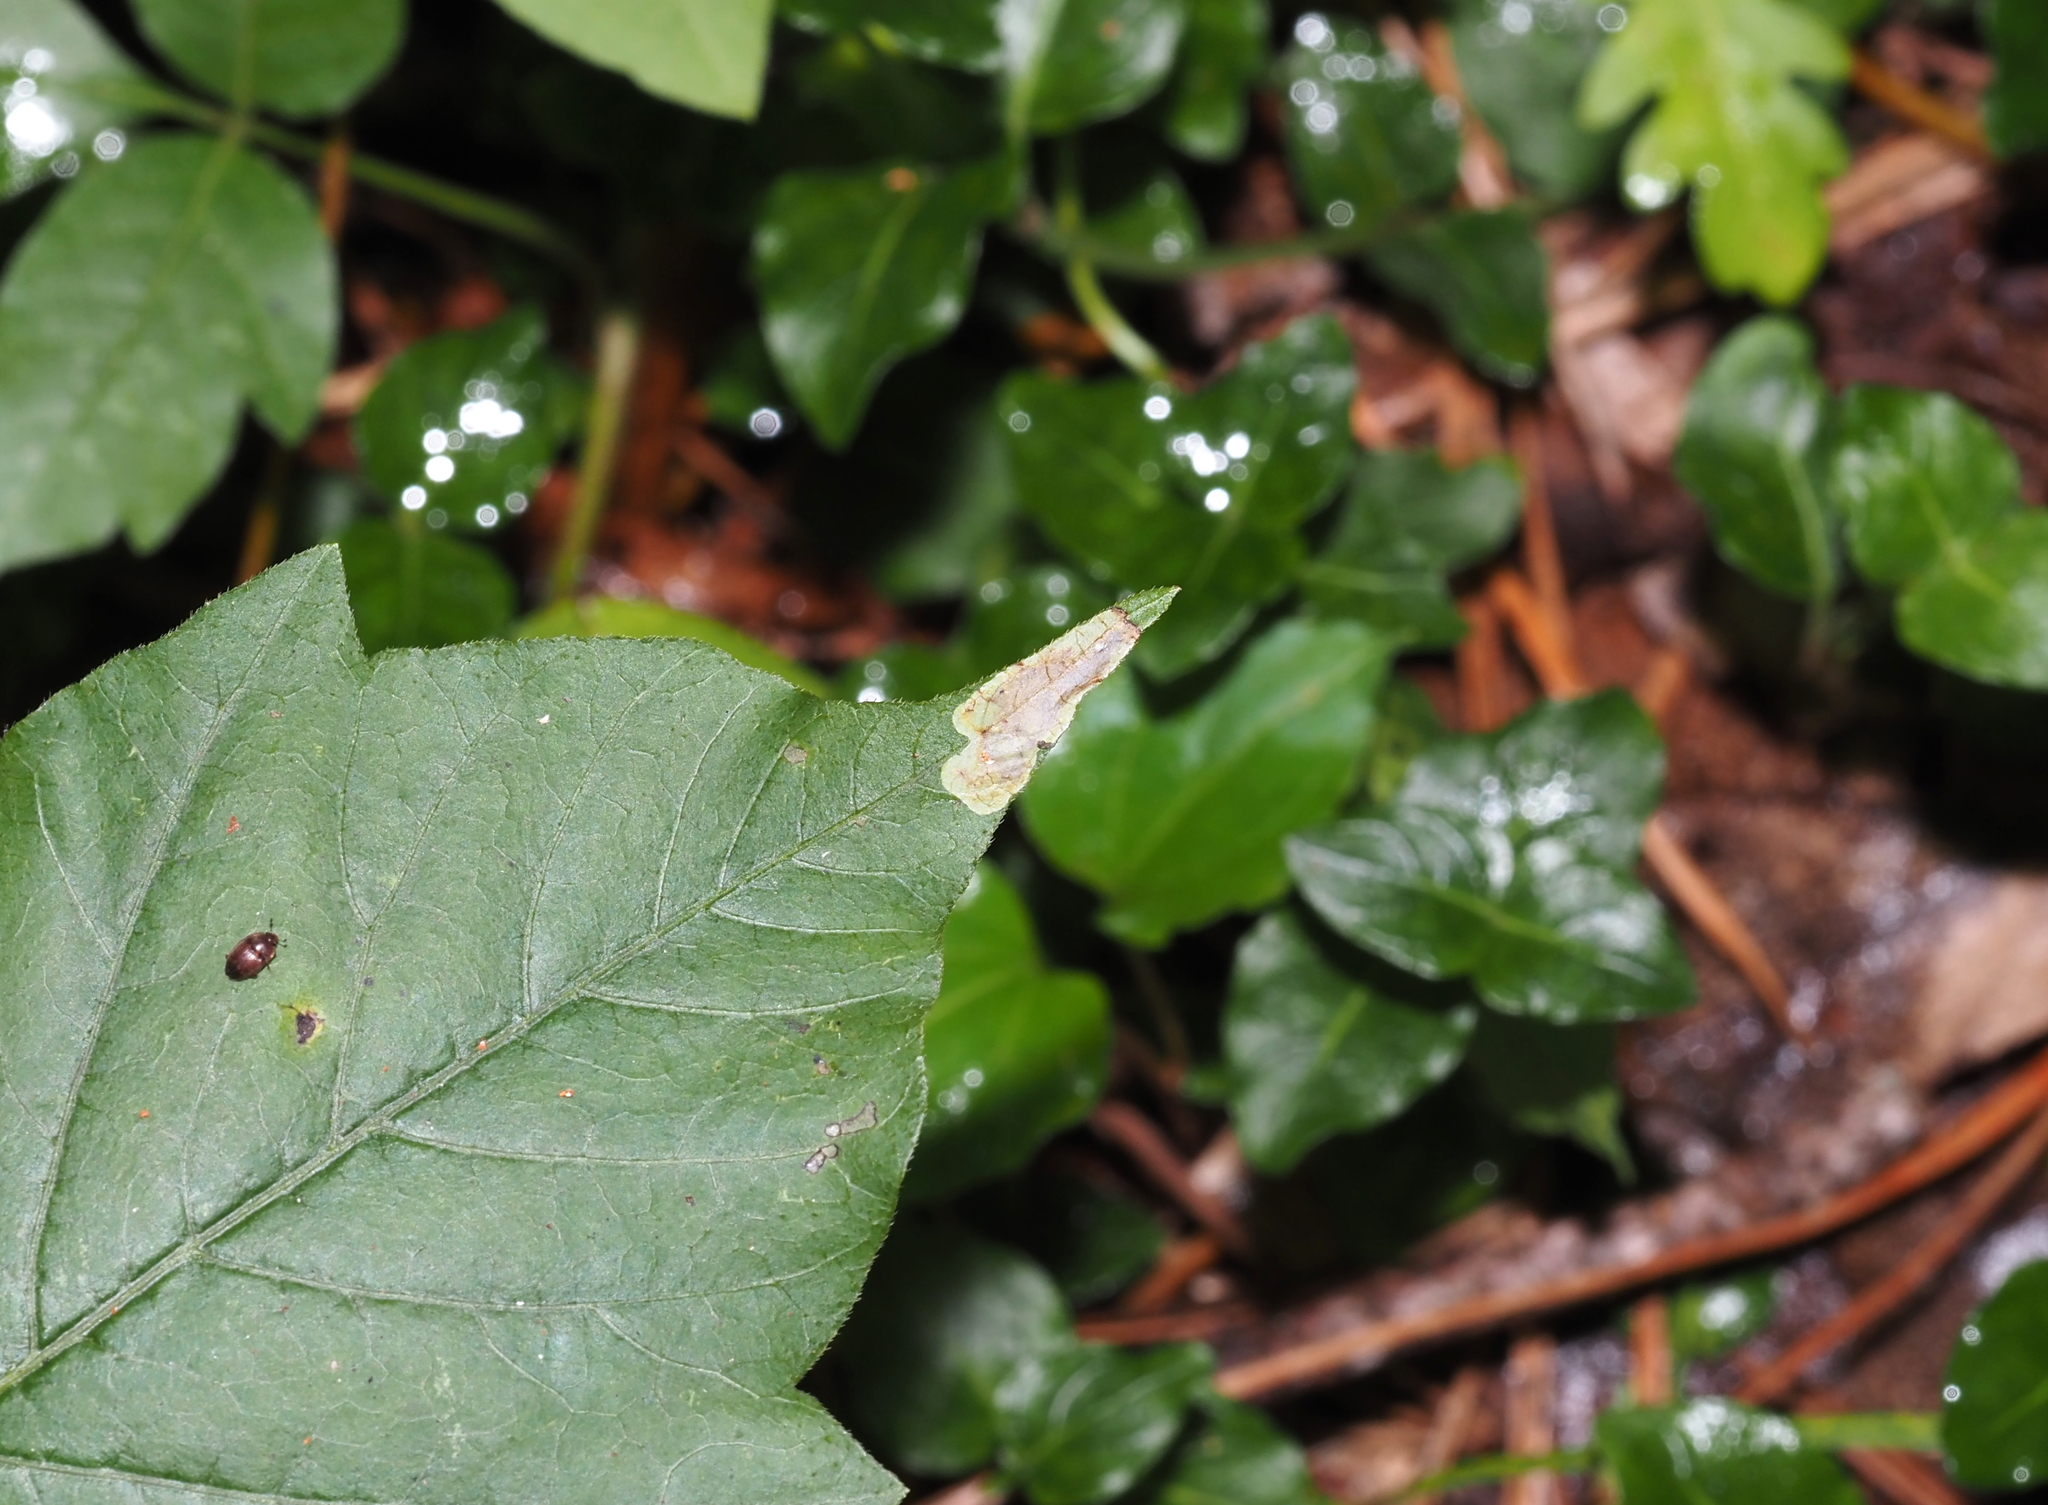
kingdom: Animalia
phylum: Arthropoda
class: Insecta
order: Lepidoptera
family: Gracillariidae
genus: Cameraria
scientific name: Cameraria guttifinitella
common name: Poison ivy leaf-miner moth
